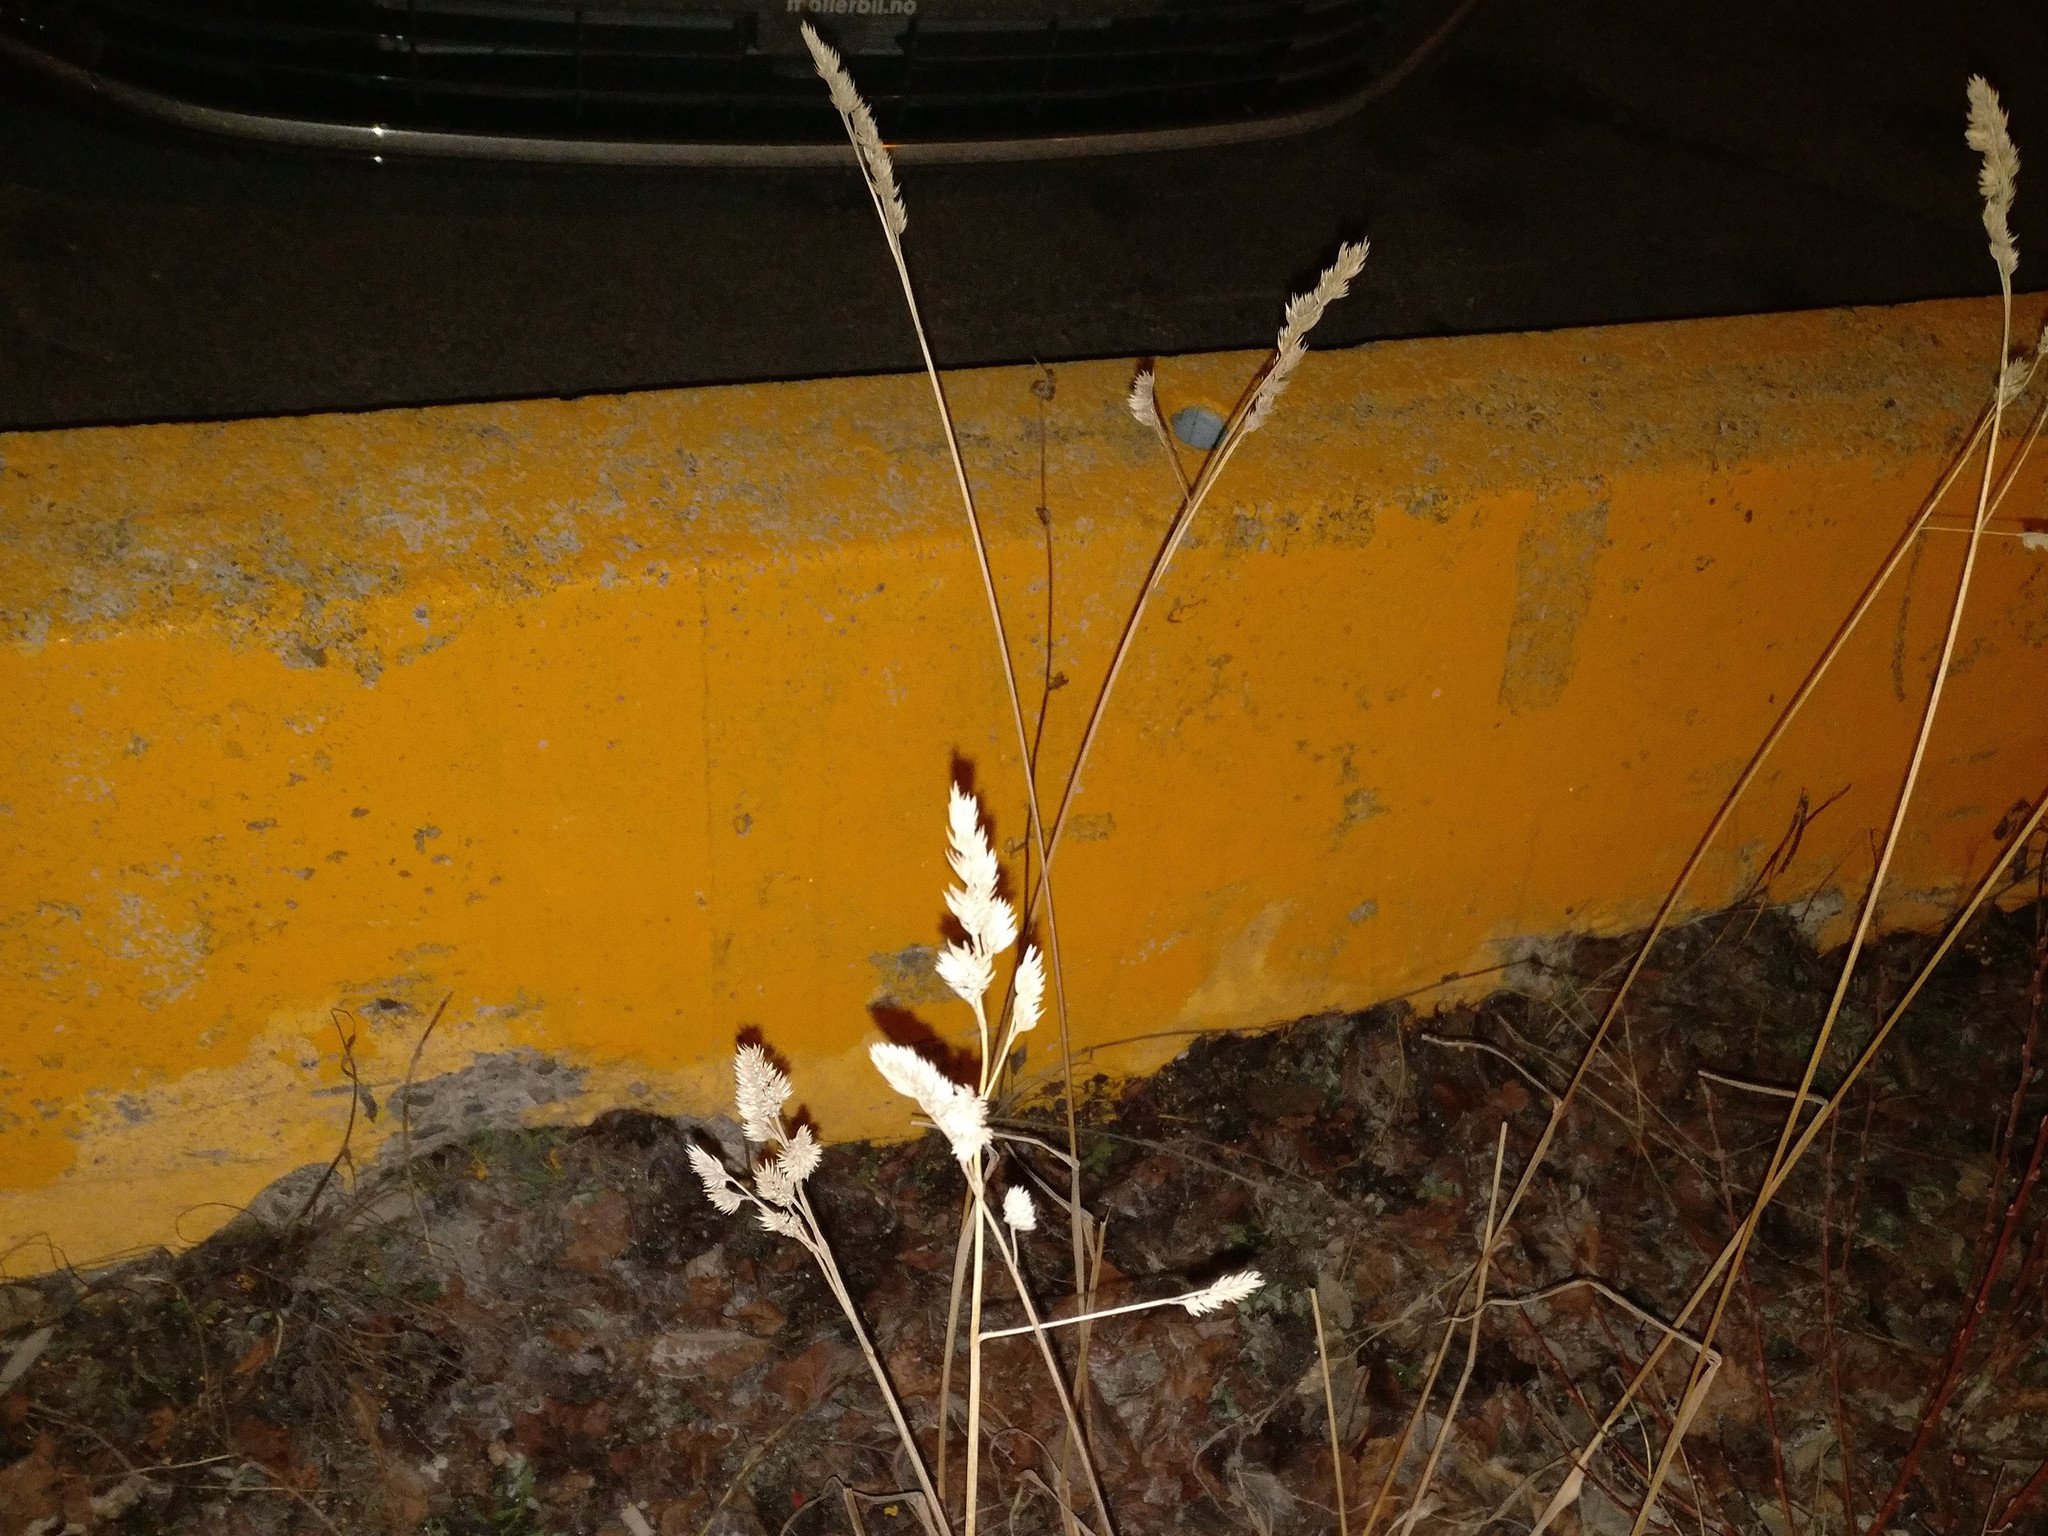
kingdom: Plantae
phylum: Tracheophyta
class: Liliopsida
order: Poales
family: Poaceae
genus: Dactylis
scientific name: Dactylis glomerata
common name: Orchardgrass
